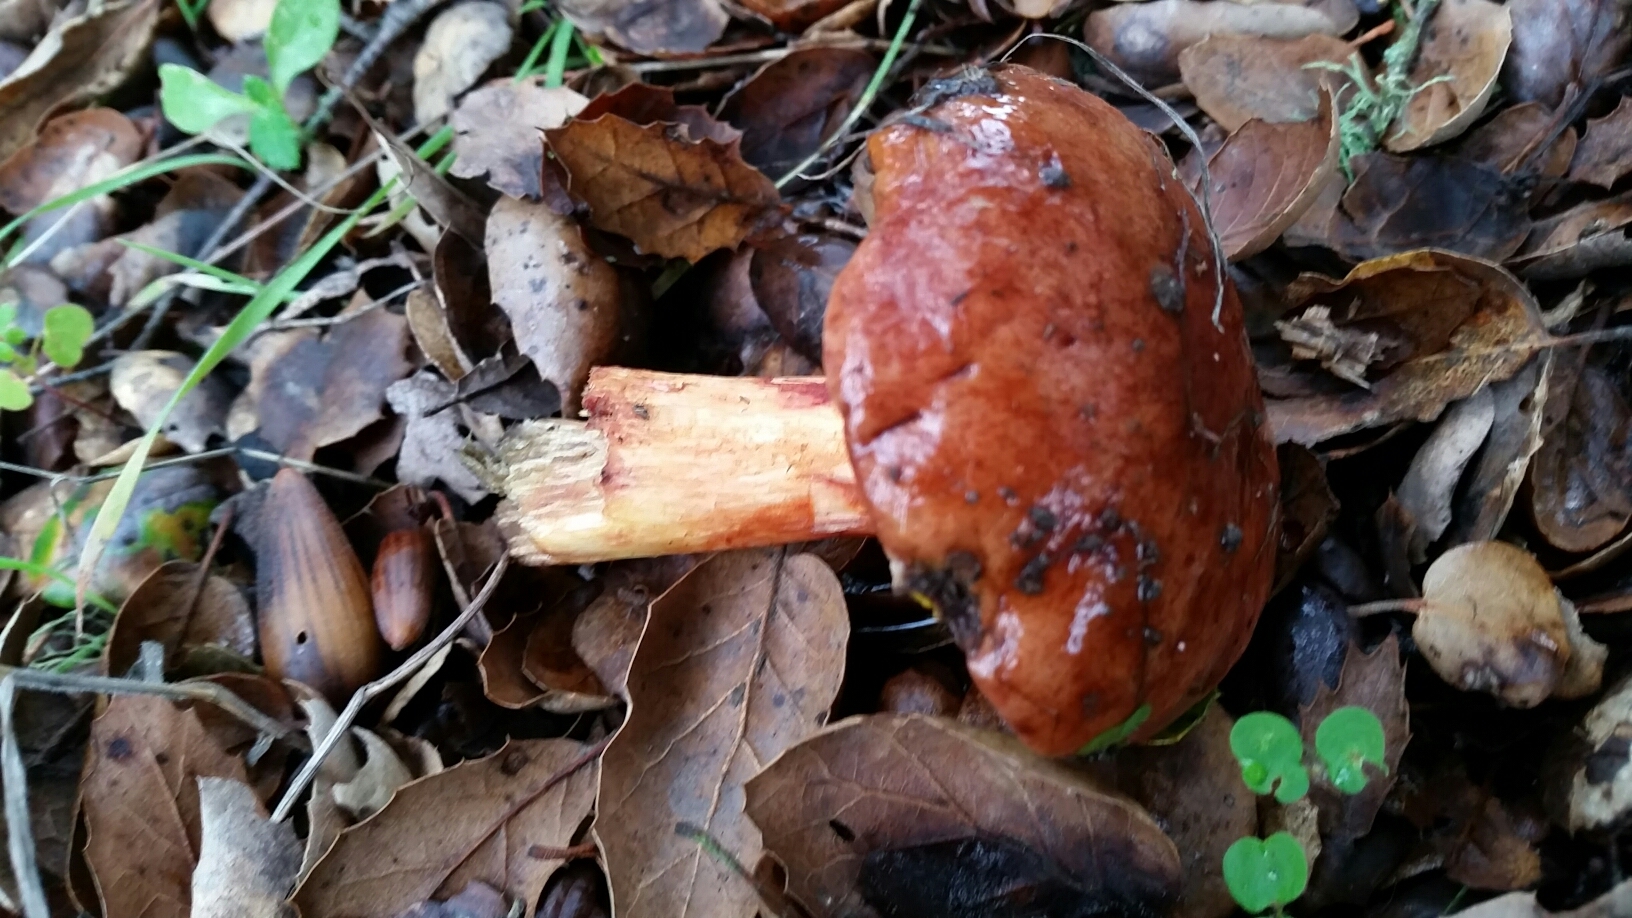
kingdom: Fungi
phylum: Basidiomycota
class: Agaricomycetes
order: Boletales
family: Boletaceae
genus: Aureoboletus
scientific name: Aureoboletus flaviporus
